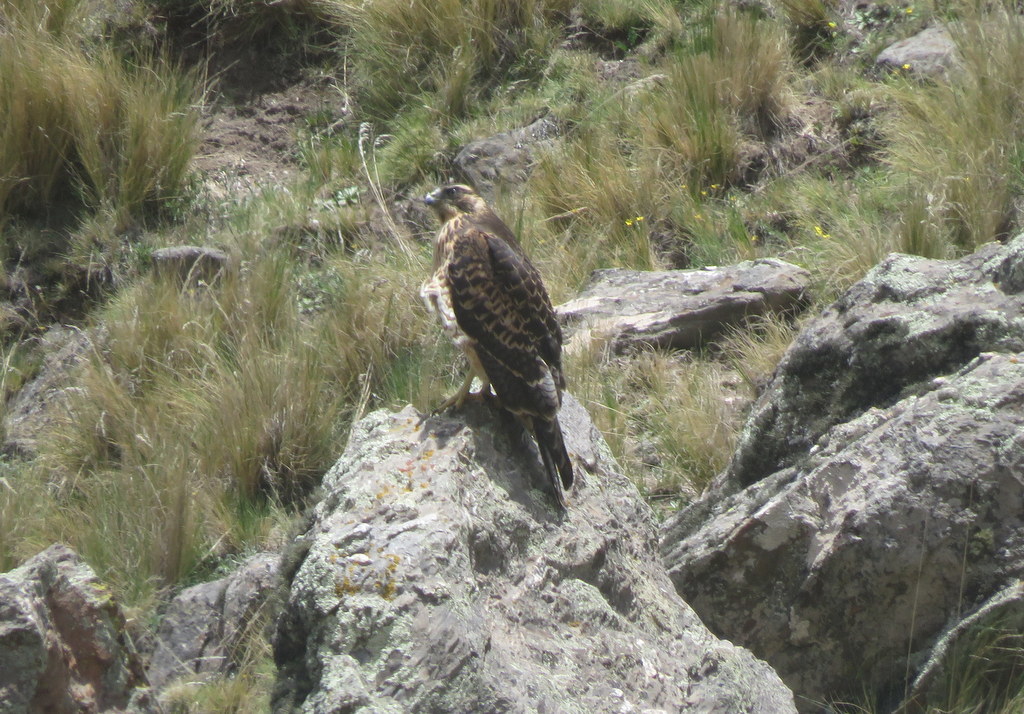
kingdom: Animalia
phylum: Chordata
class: Aves
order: Accipitriformes
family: Accipitridae
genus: Buteo
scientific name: Buteo polyosoma
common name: Variable hawk
